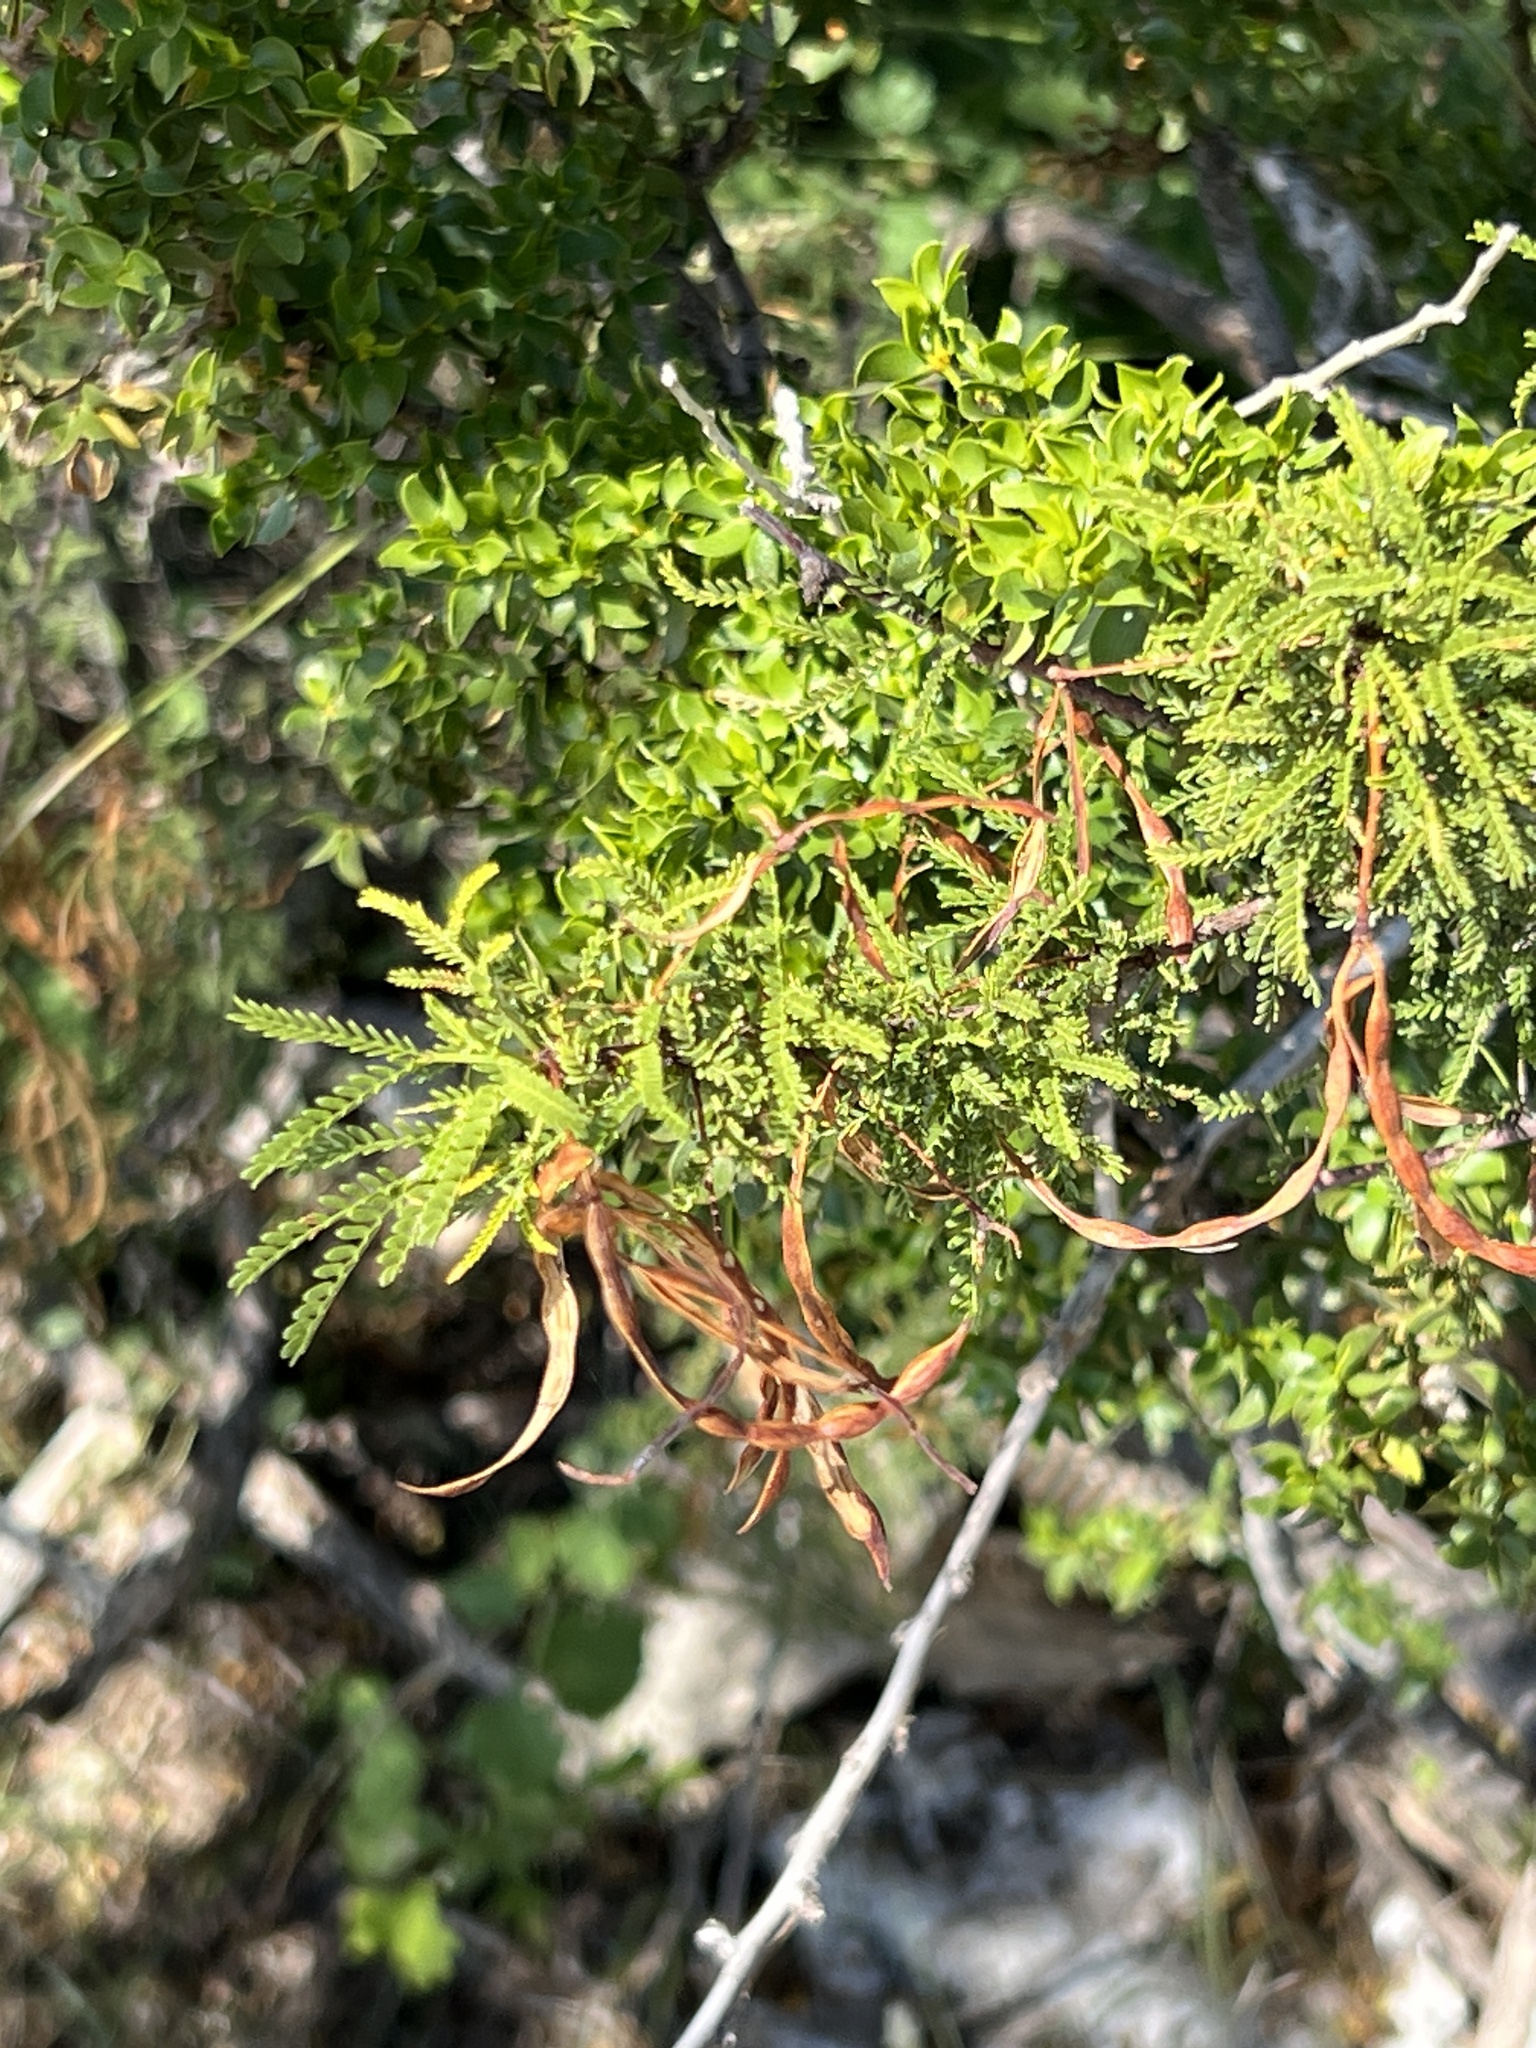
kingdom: Plantae
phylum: Tracheophyta
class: Magnoliopsida
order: Fabales
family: Fabaceae
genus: Vachellia
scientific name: Vachellia vernicosa
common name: Viscid acacia
